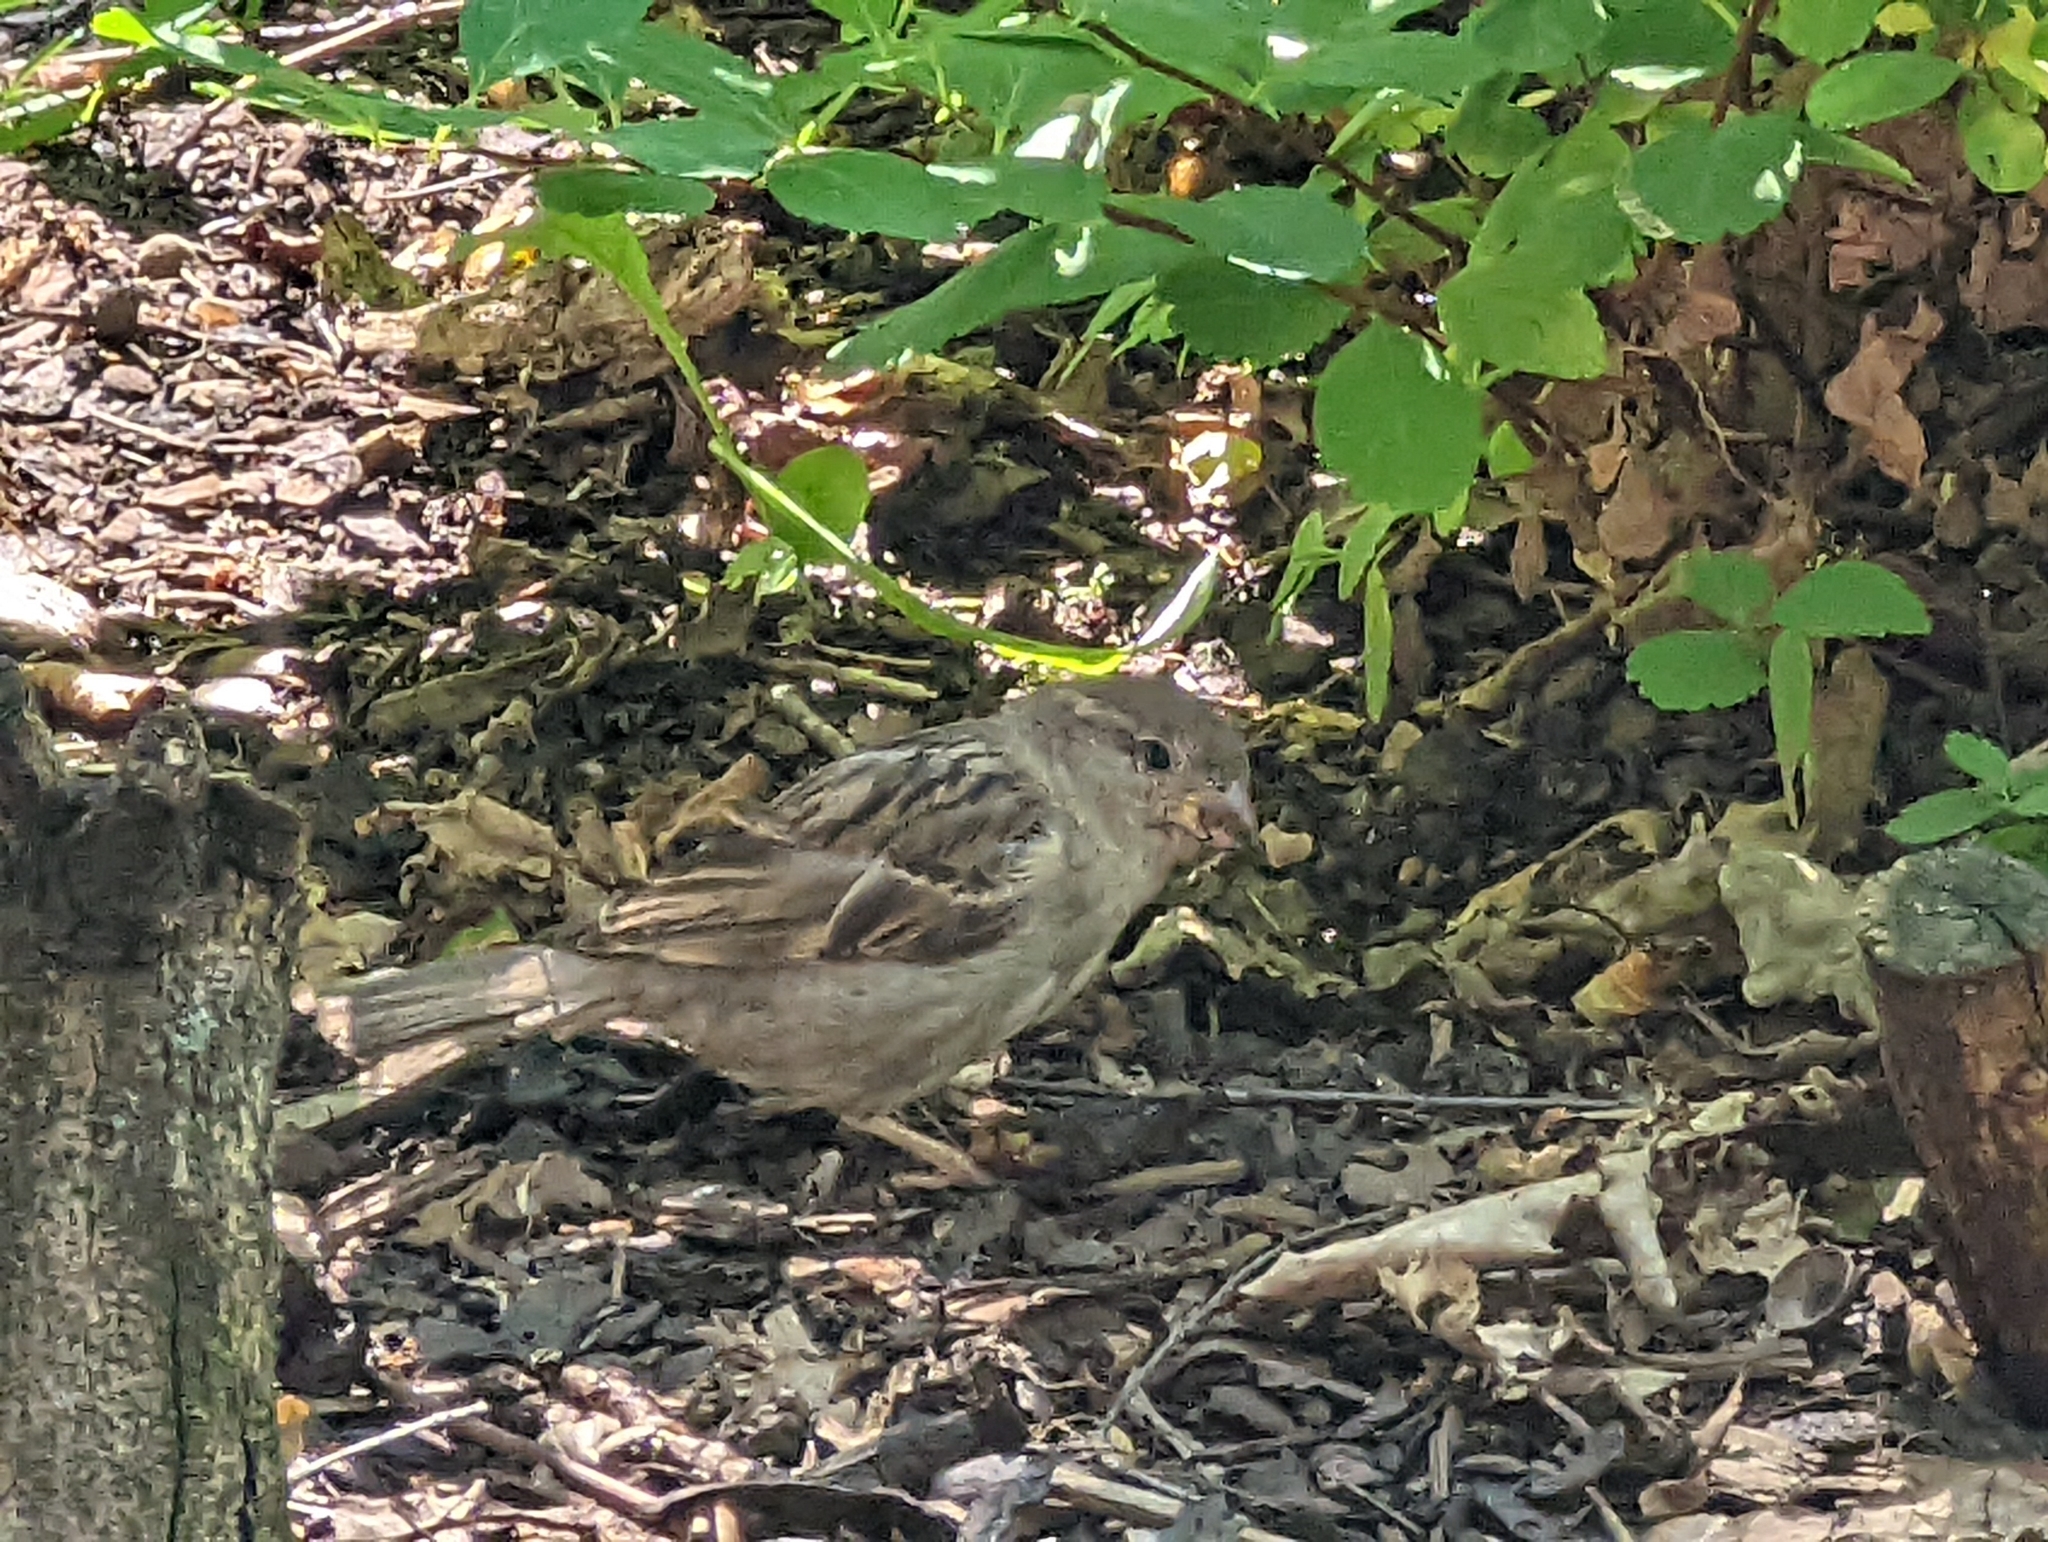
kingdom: Animalia
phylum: Chordata
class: Aves
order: Passeriformes
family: Passeridae
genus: Passer
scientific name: Passer domesticus
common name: House sparrow
